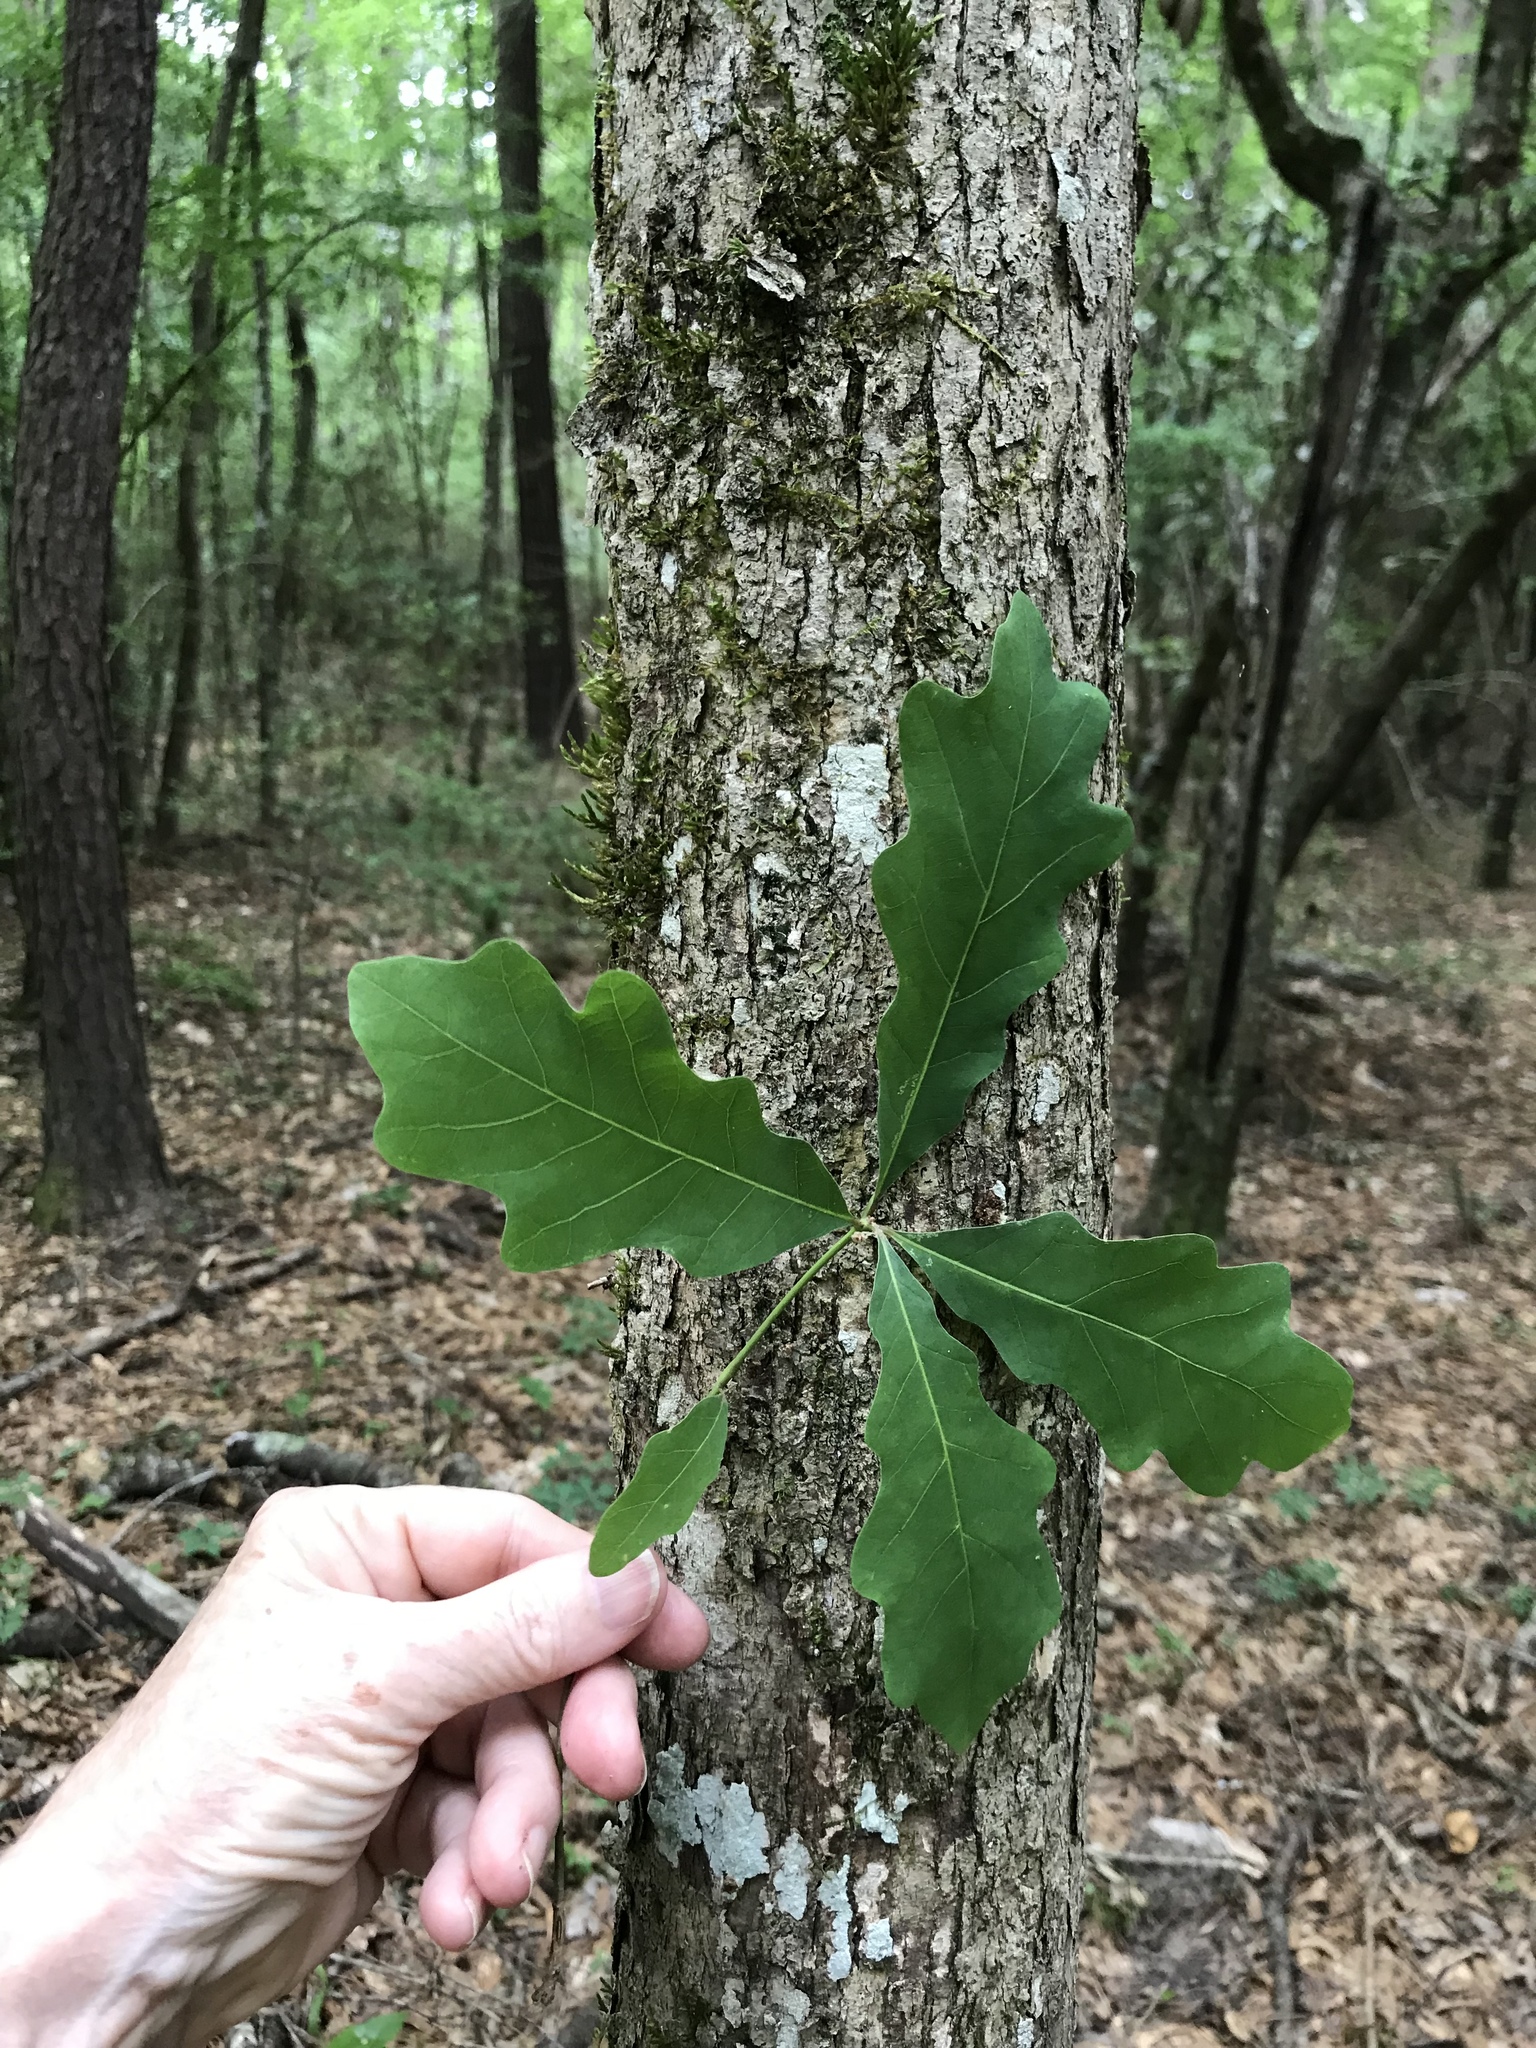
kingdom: Plantae
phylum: Tracheophyta
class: Magnoliopsida
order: Fagales
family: Fagaceae
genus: Quercus
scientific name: Quercus alba
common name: White oak
